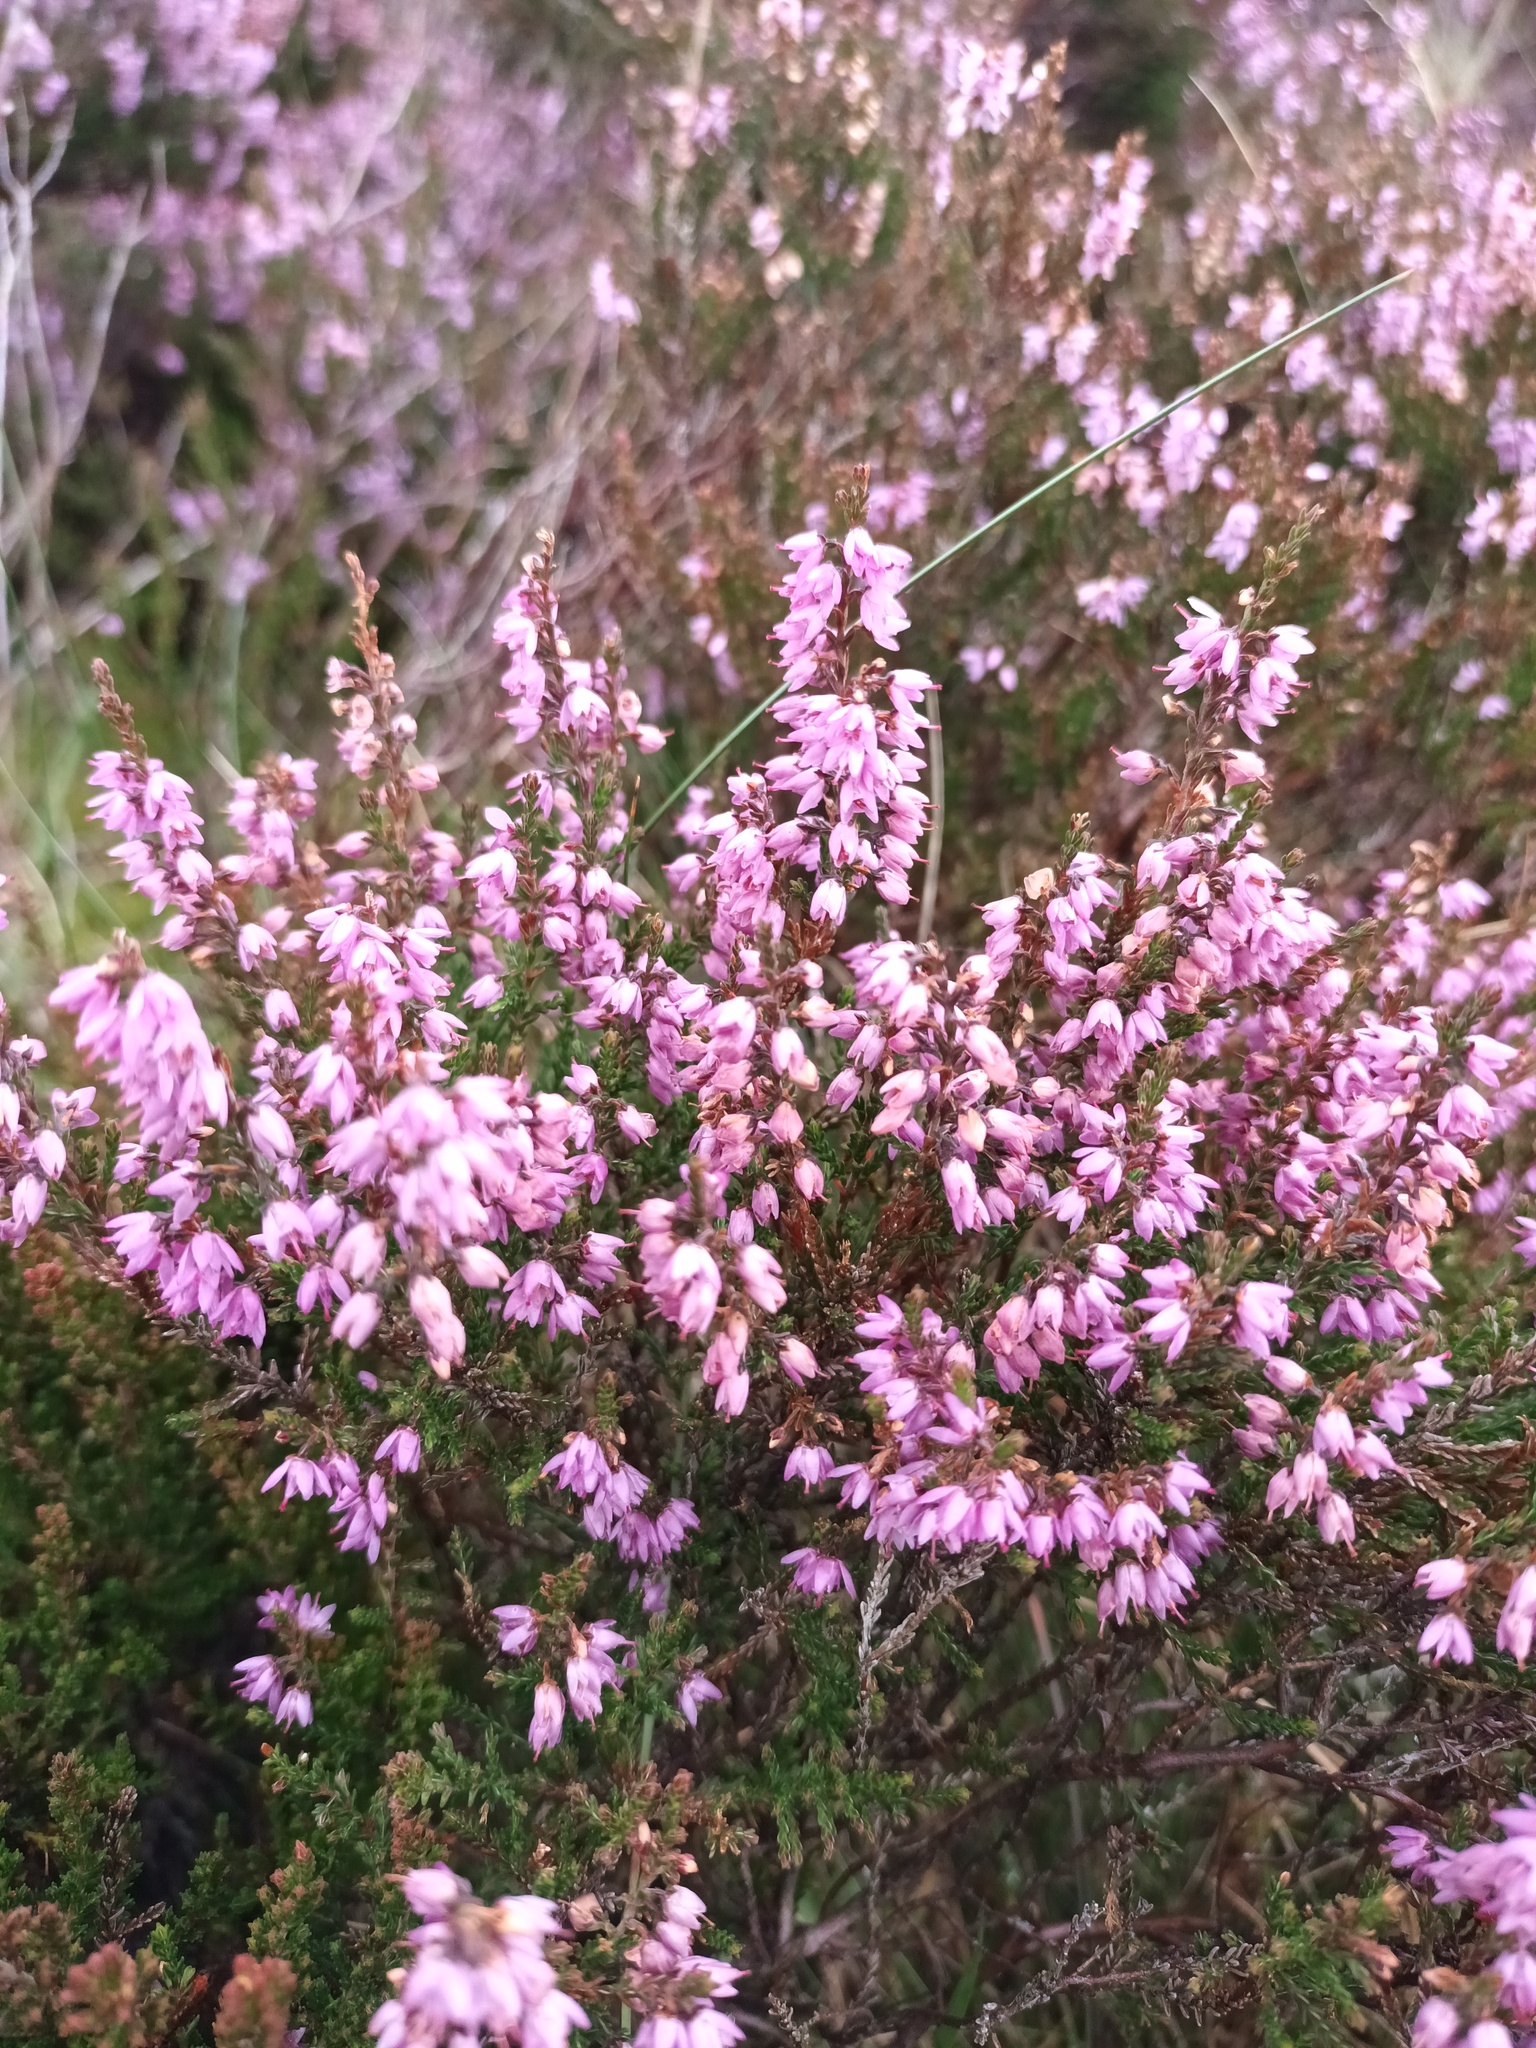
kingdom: Plantae
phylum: Tracheophyta
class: Magnoliopsida
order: Ericales
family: Ericaceae
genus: Calluna
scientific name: Calluna vulgaris
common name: Heather
